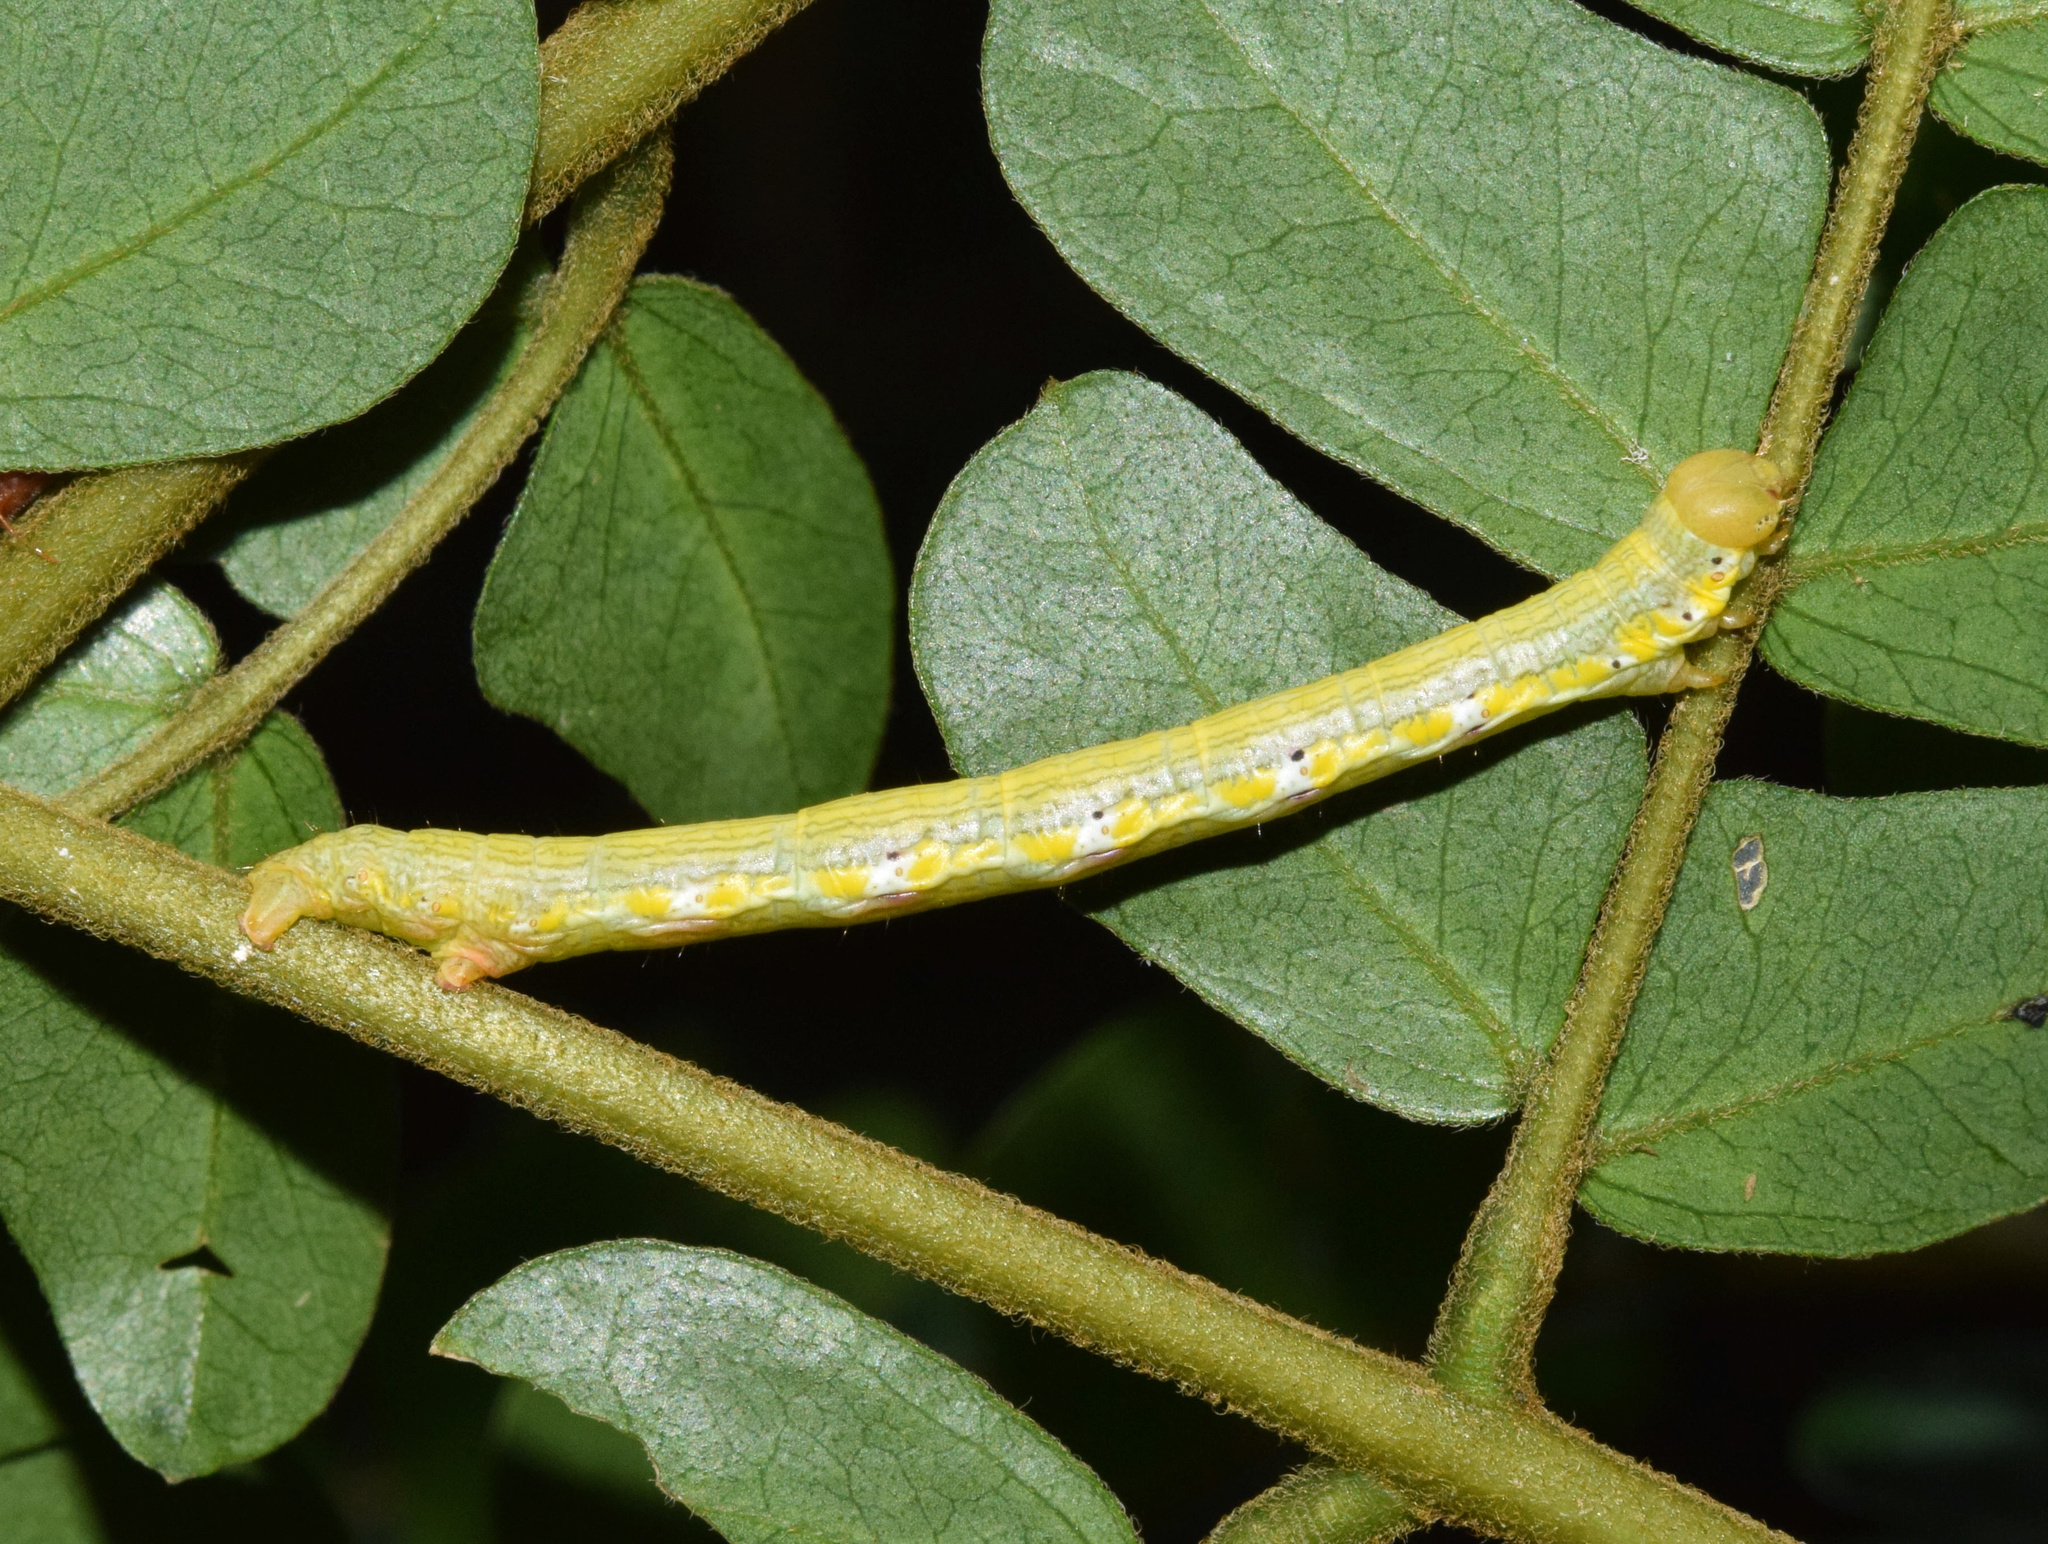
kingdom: Animalia
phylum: Arthropoda
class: Insecta
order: Lepidoptera
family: Geometridae
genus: Chiasmia
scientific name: Chiasmia rectistriaria
